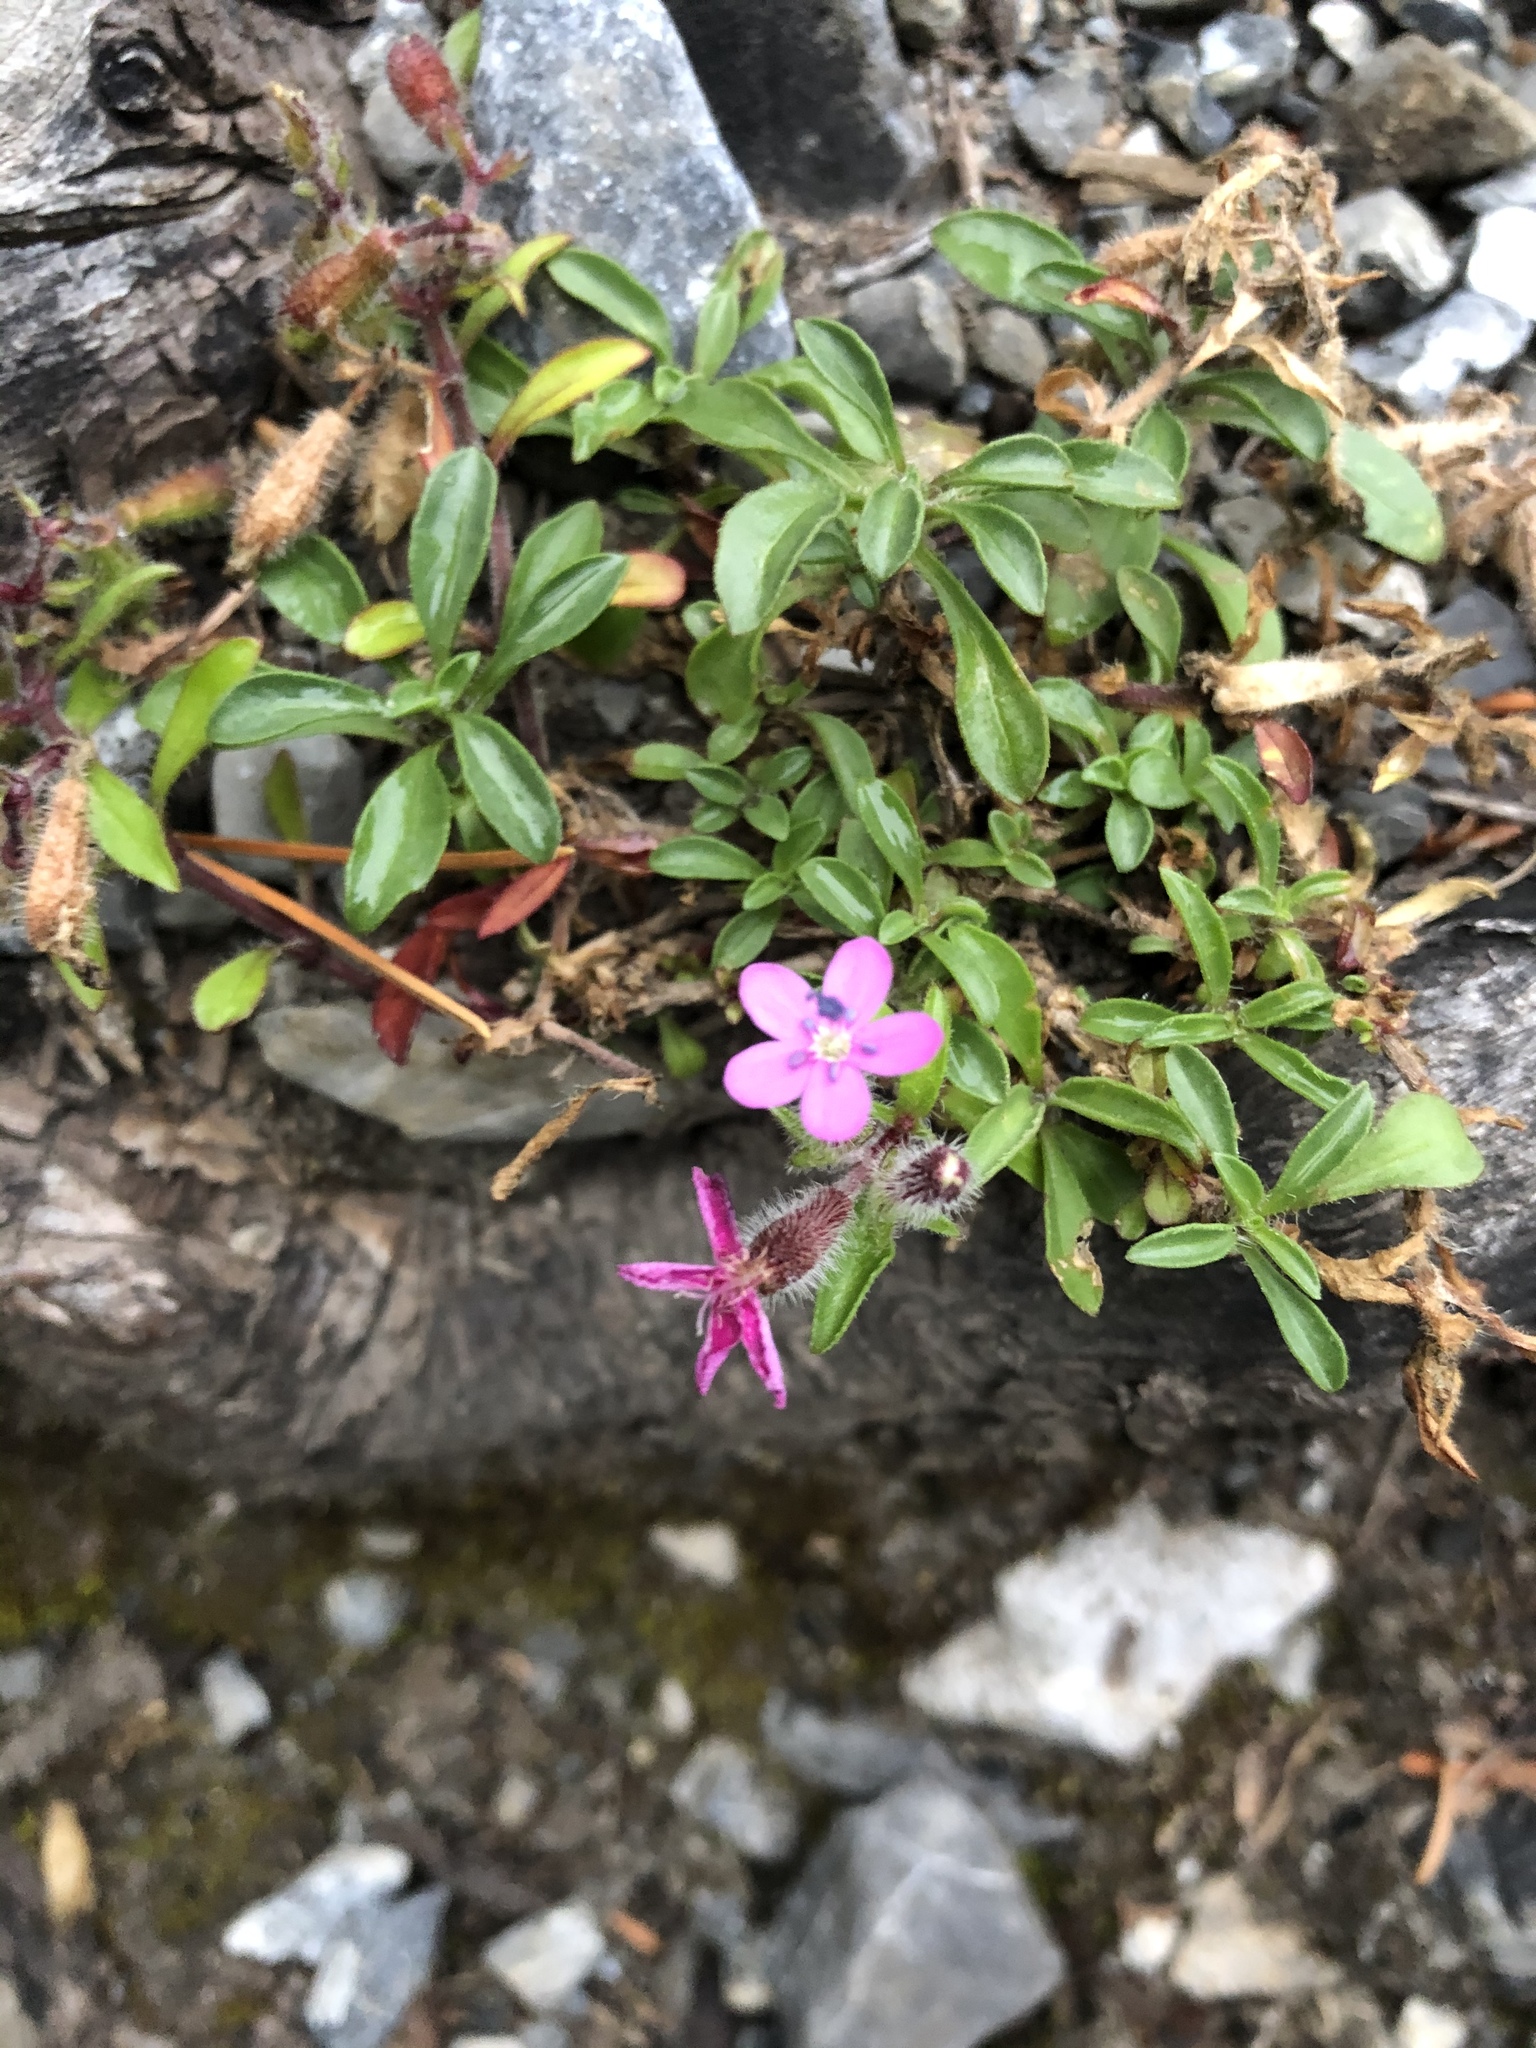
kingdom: Plantae
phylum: Tracheophyta
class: Magnoliopsida
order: Caryophyllales
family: Caryophyllaceae
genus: Saponaria
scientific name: Saponaria ocymoides
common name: Rock soapwort
